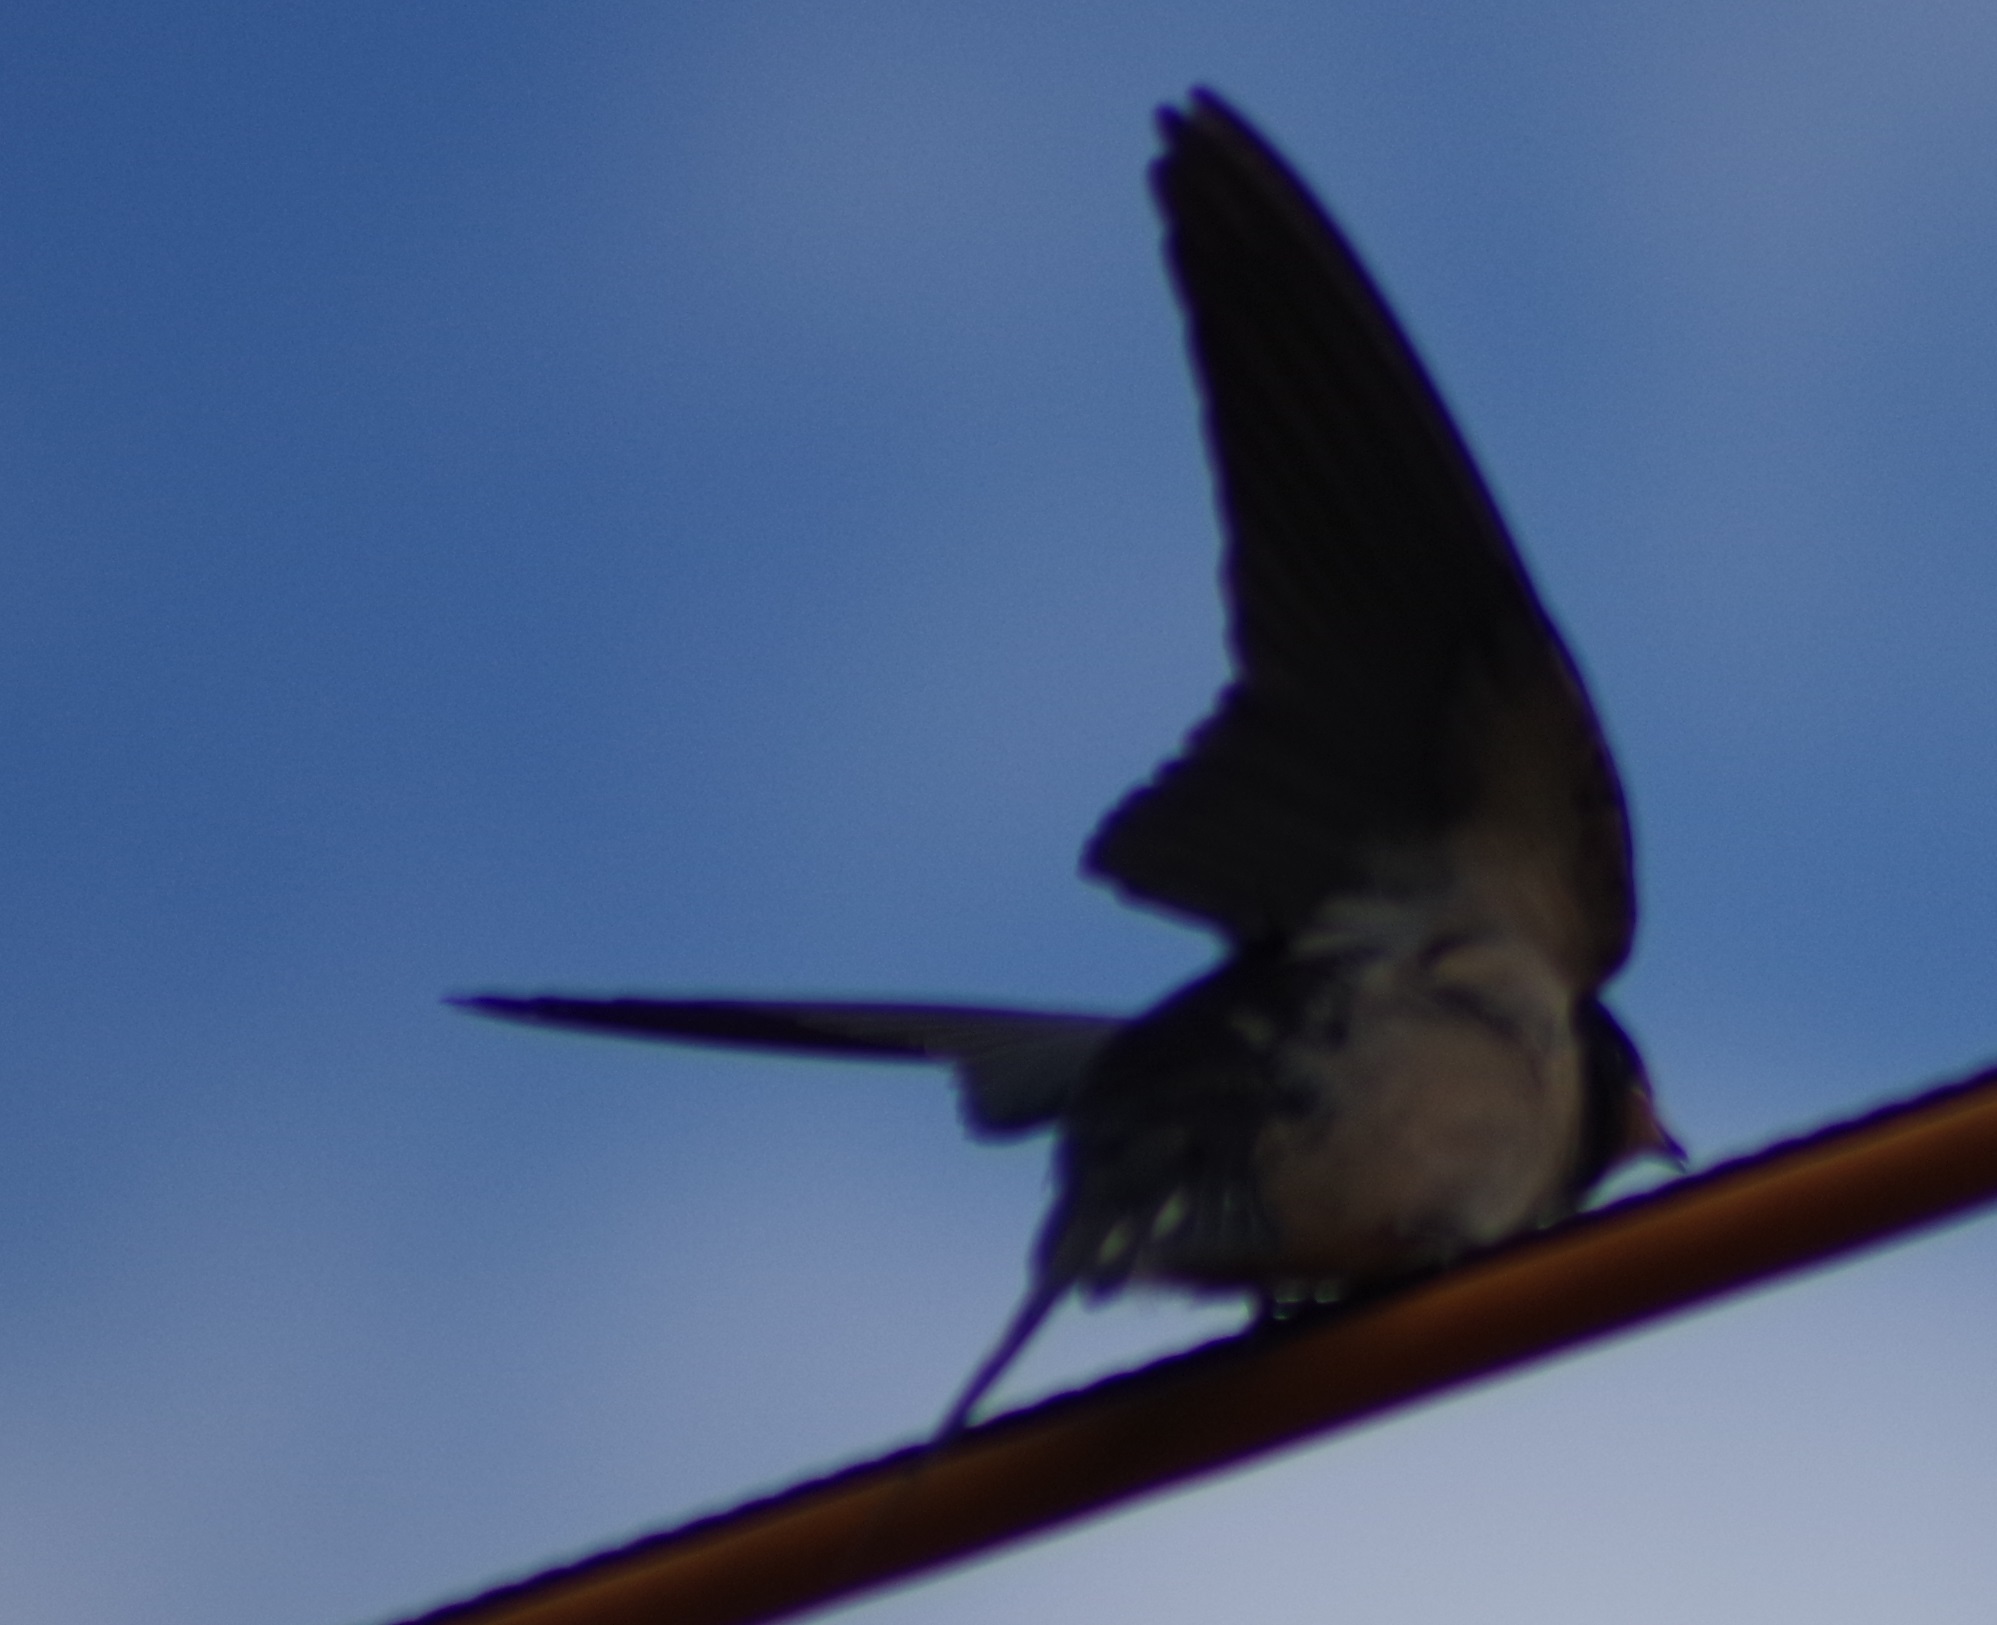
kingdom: Animalia
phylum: Chordata
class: Aves
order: Passeriformes
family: Hirundinidae
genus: Hirundo
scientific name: Hirundo rustica
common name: Barn swallow
